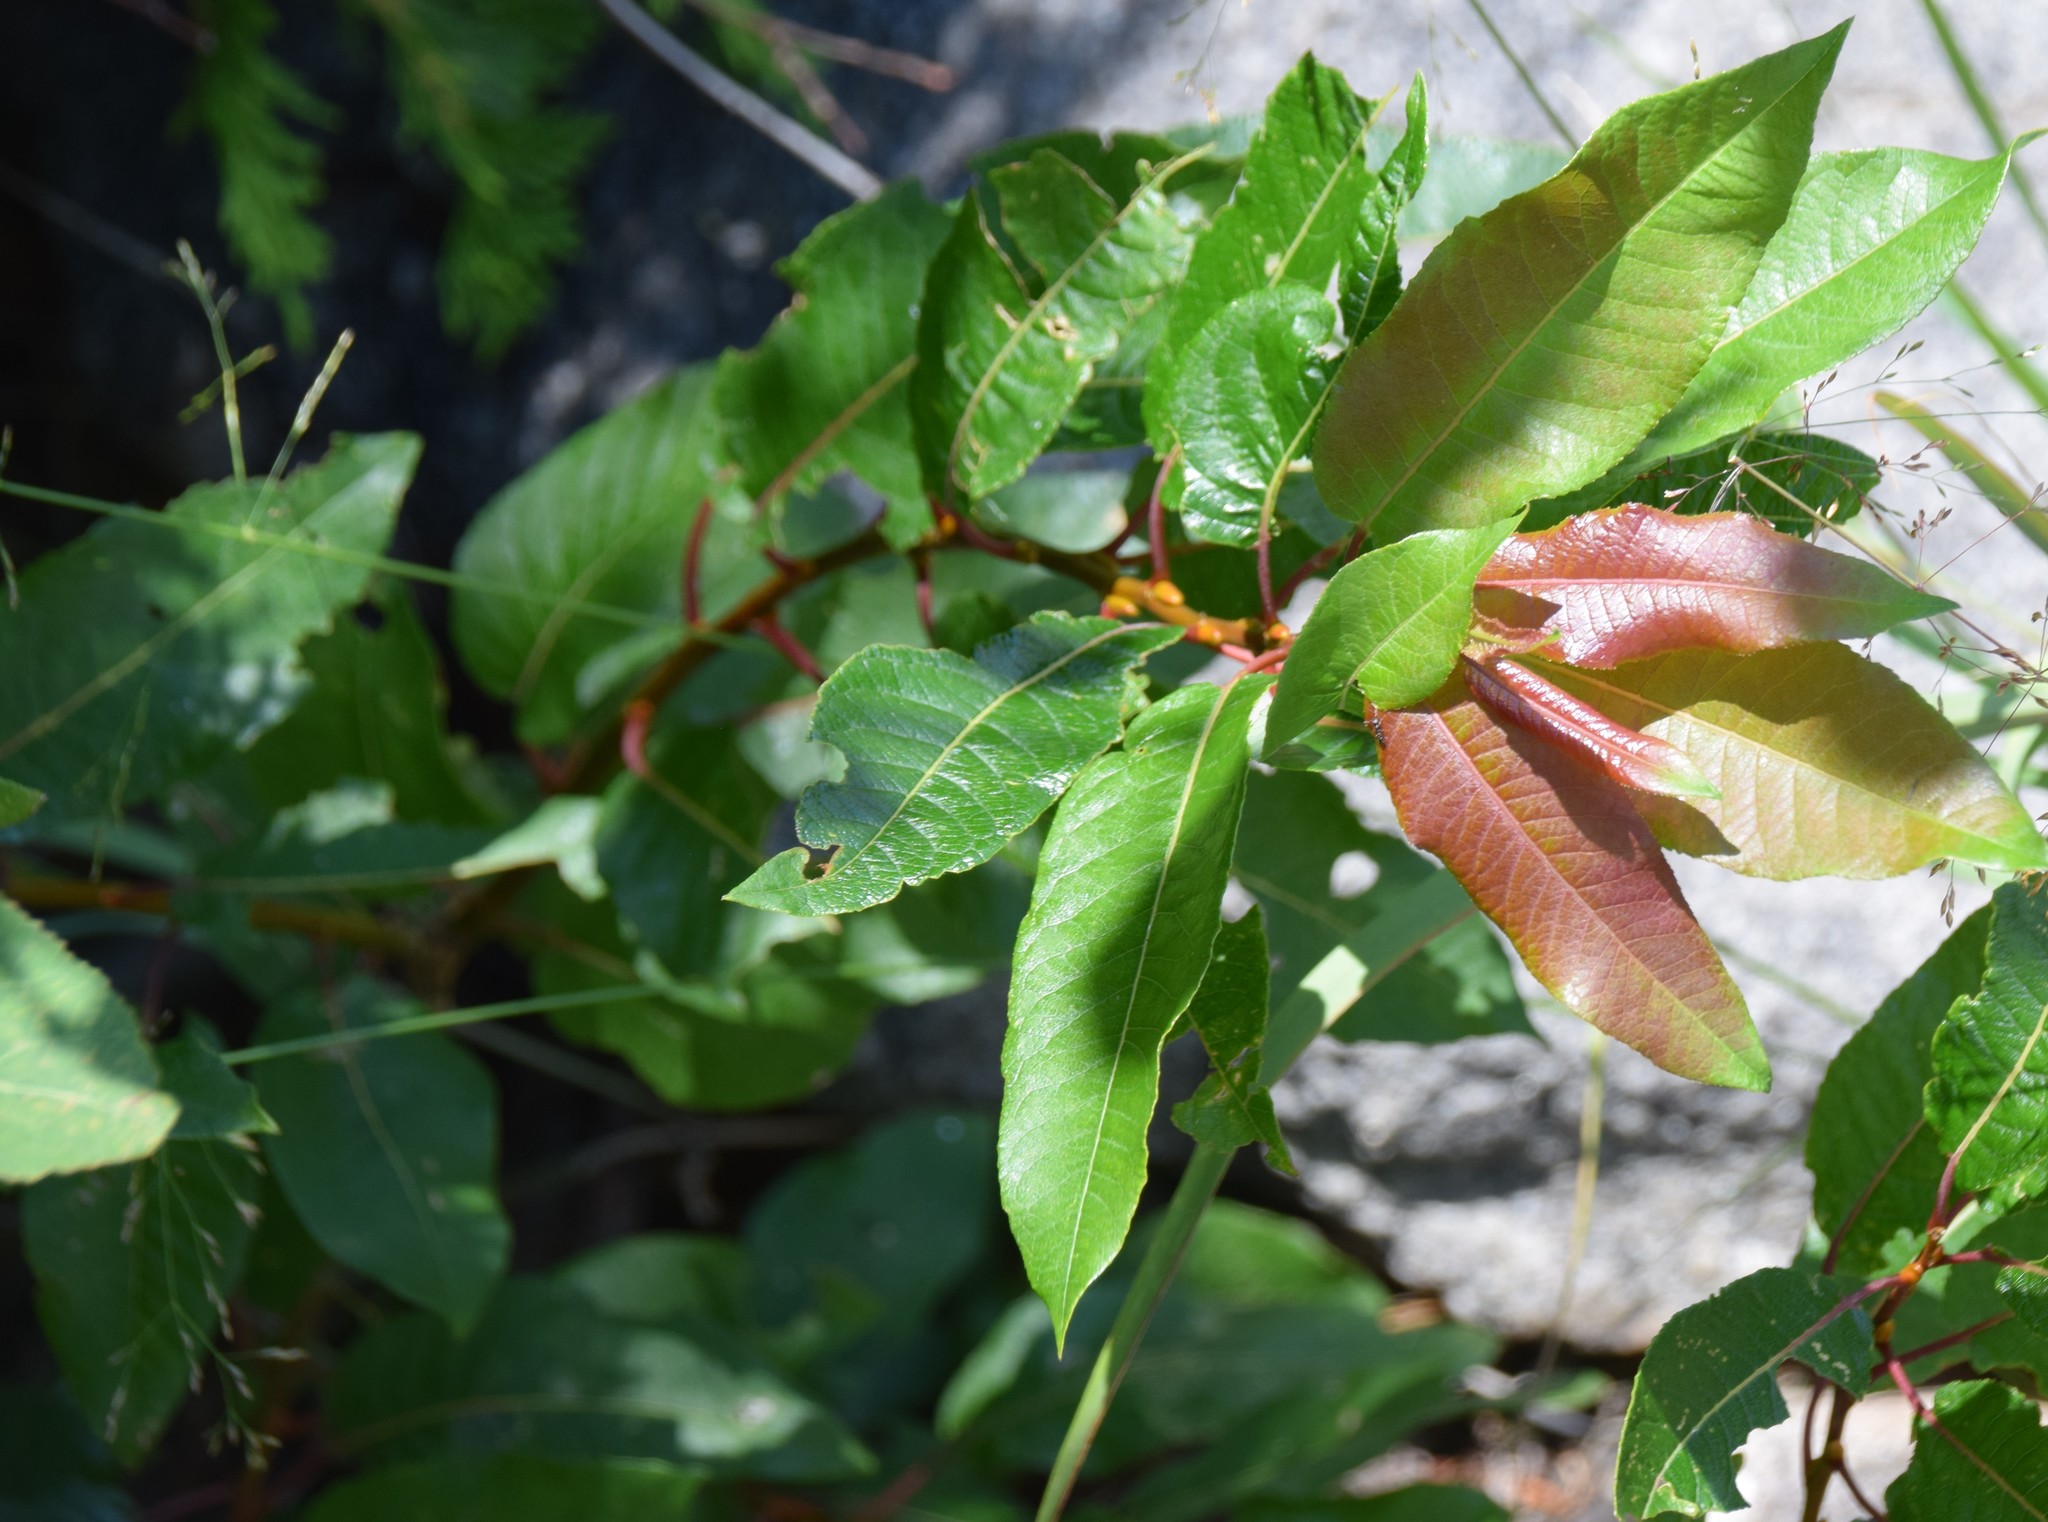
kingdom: Plantae
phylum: Tracheophyta
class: Magnoliopsida
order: Malpighiales
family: Salicaceae
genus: Salix
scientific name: Salix pyrifolia
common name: Balsam willow
